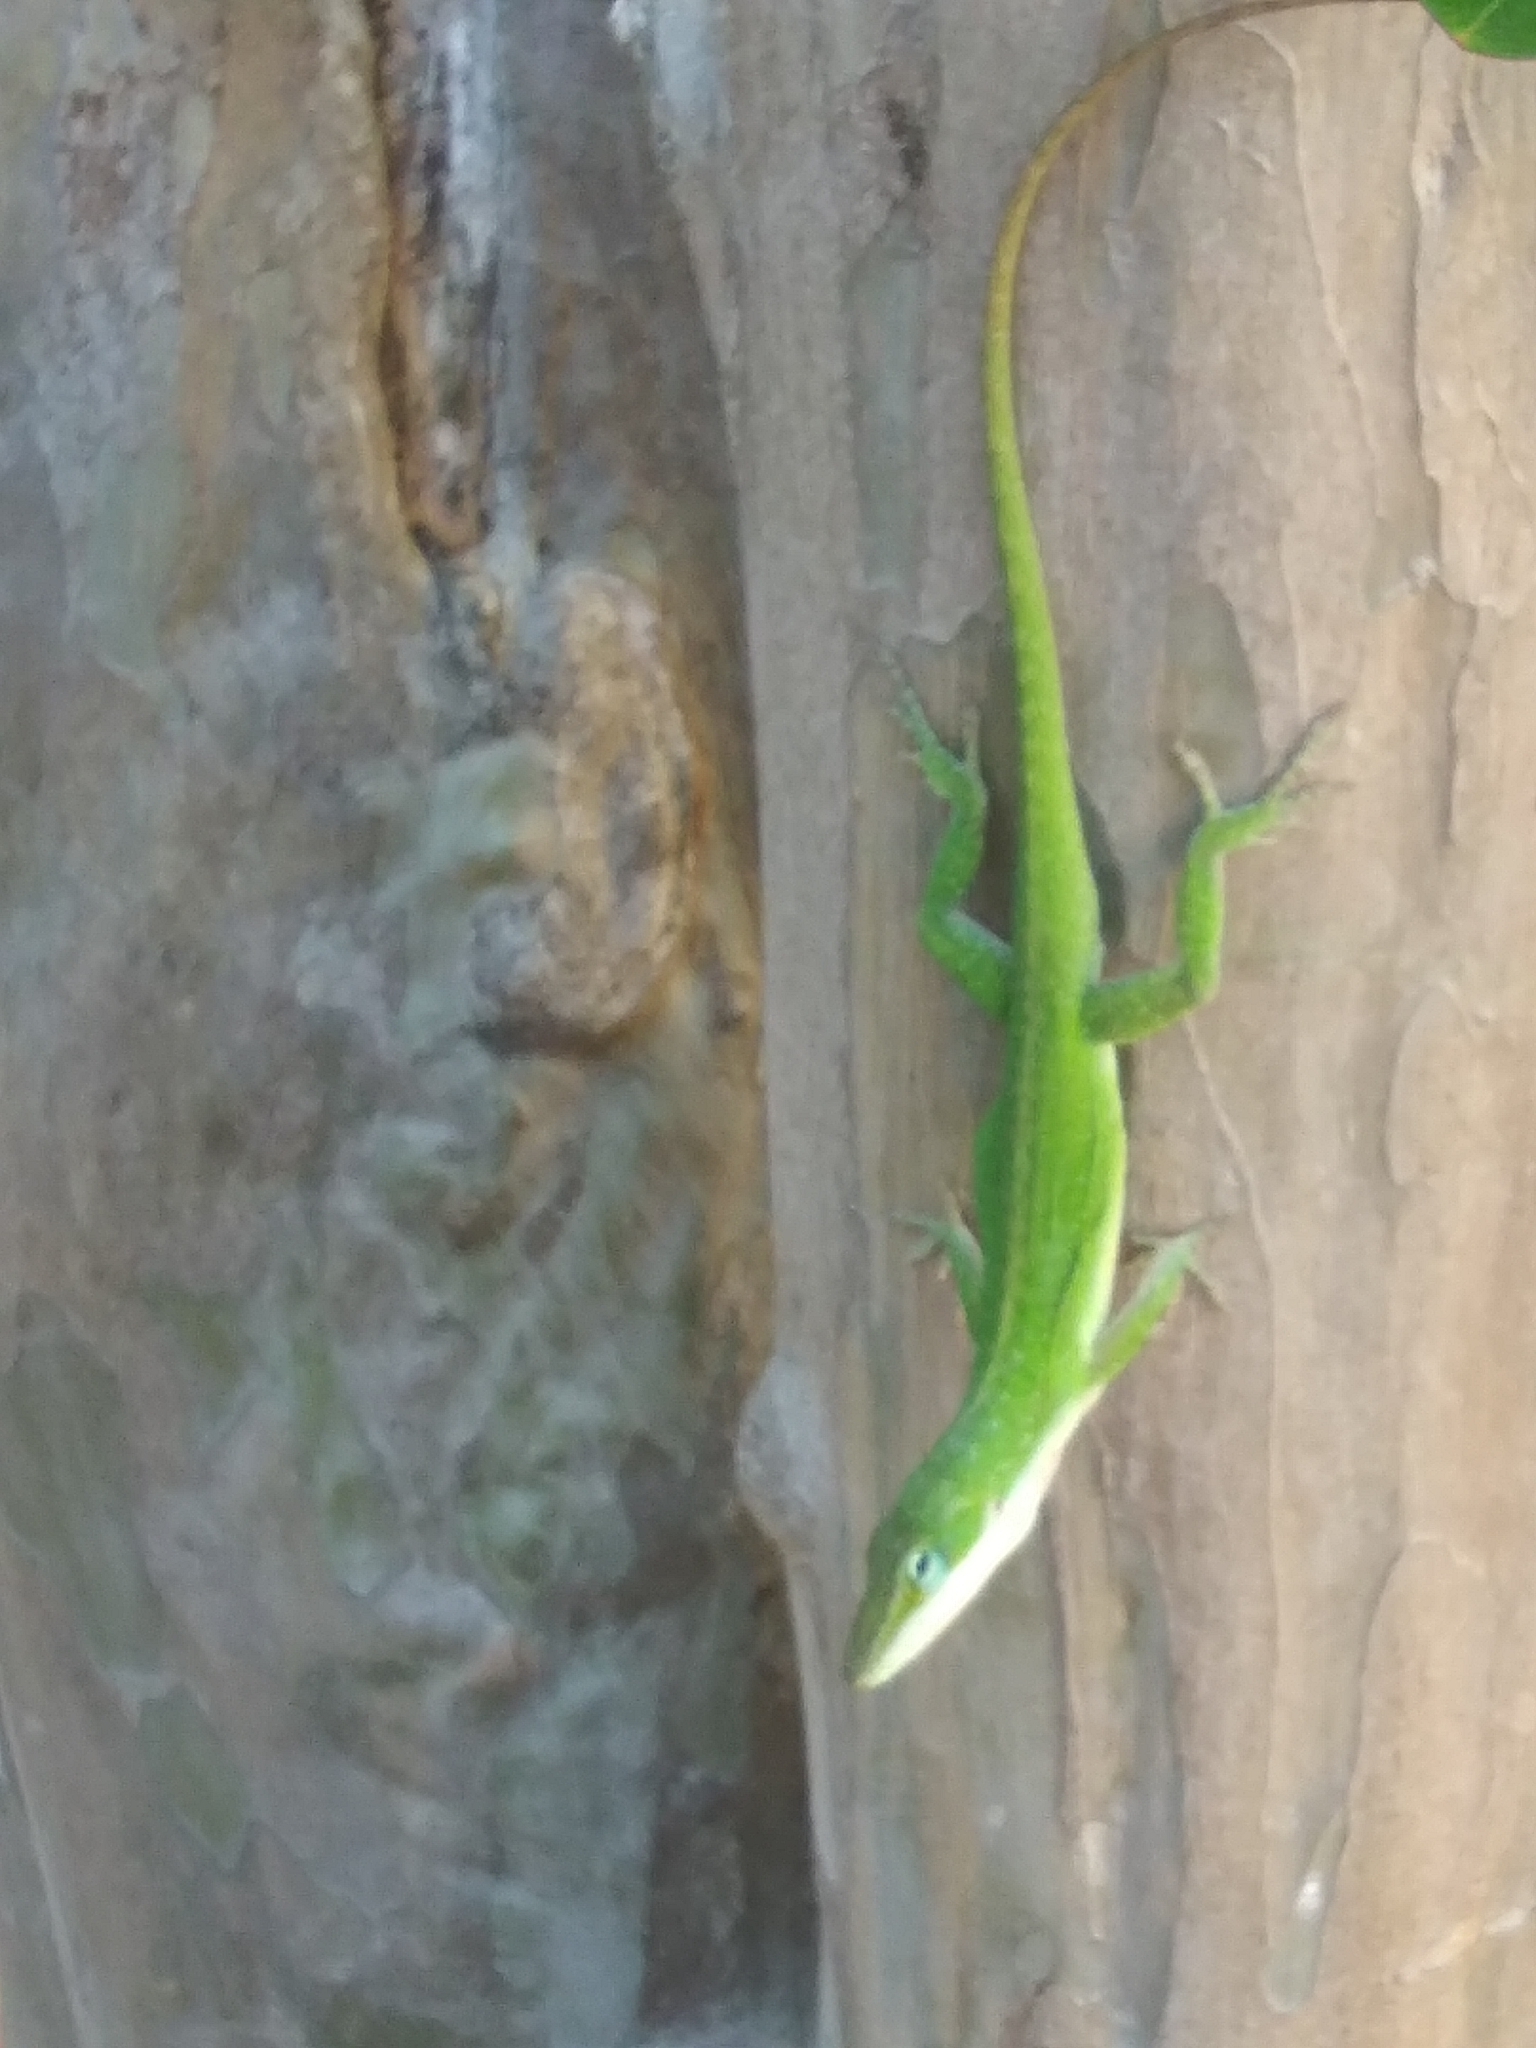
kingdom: Animalia
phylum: Chordata
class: Squamata
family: Dactyloidae
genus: Anolis
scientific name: Anolis carolinensis
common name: Green anole
